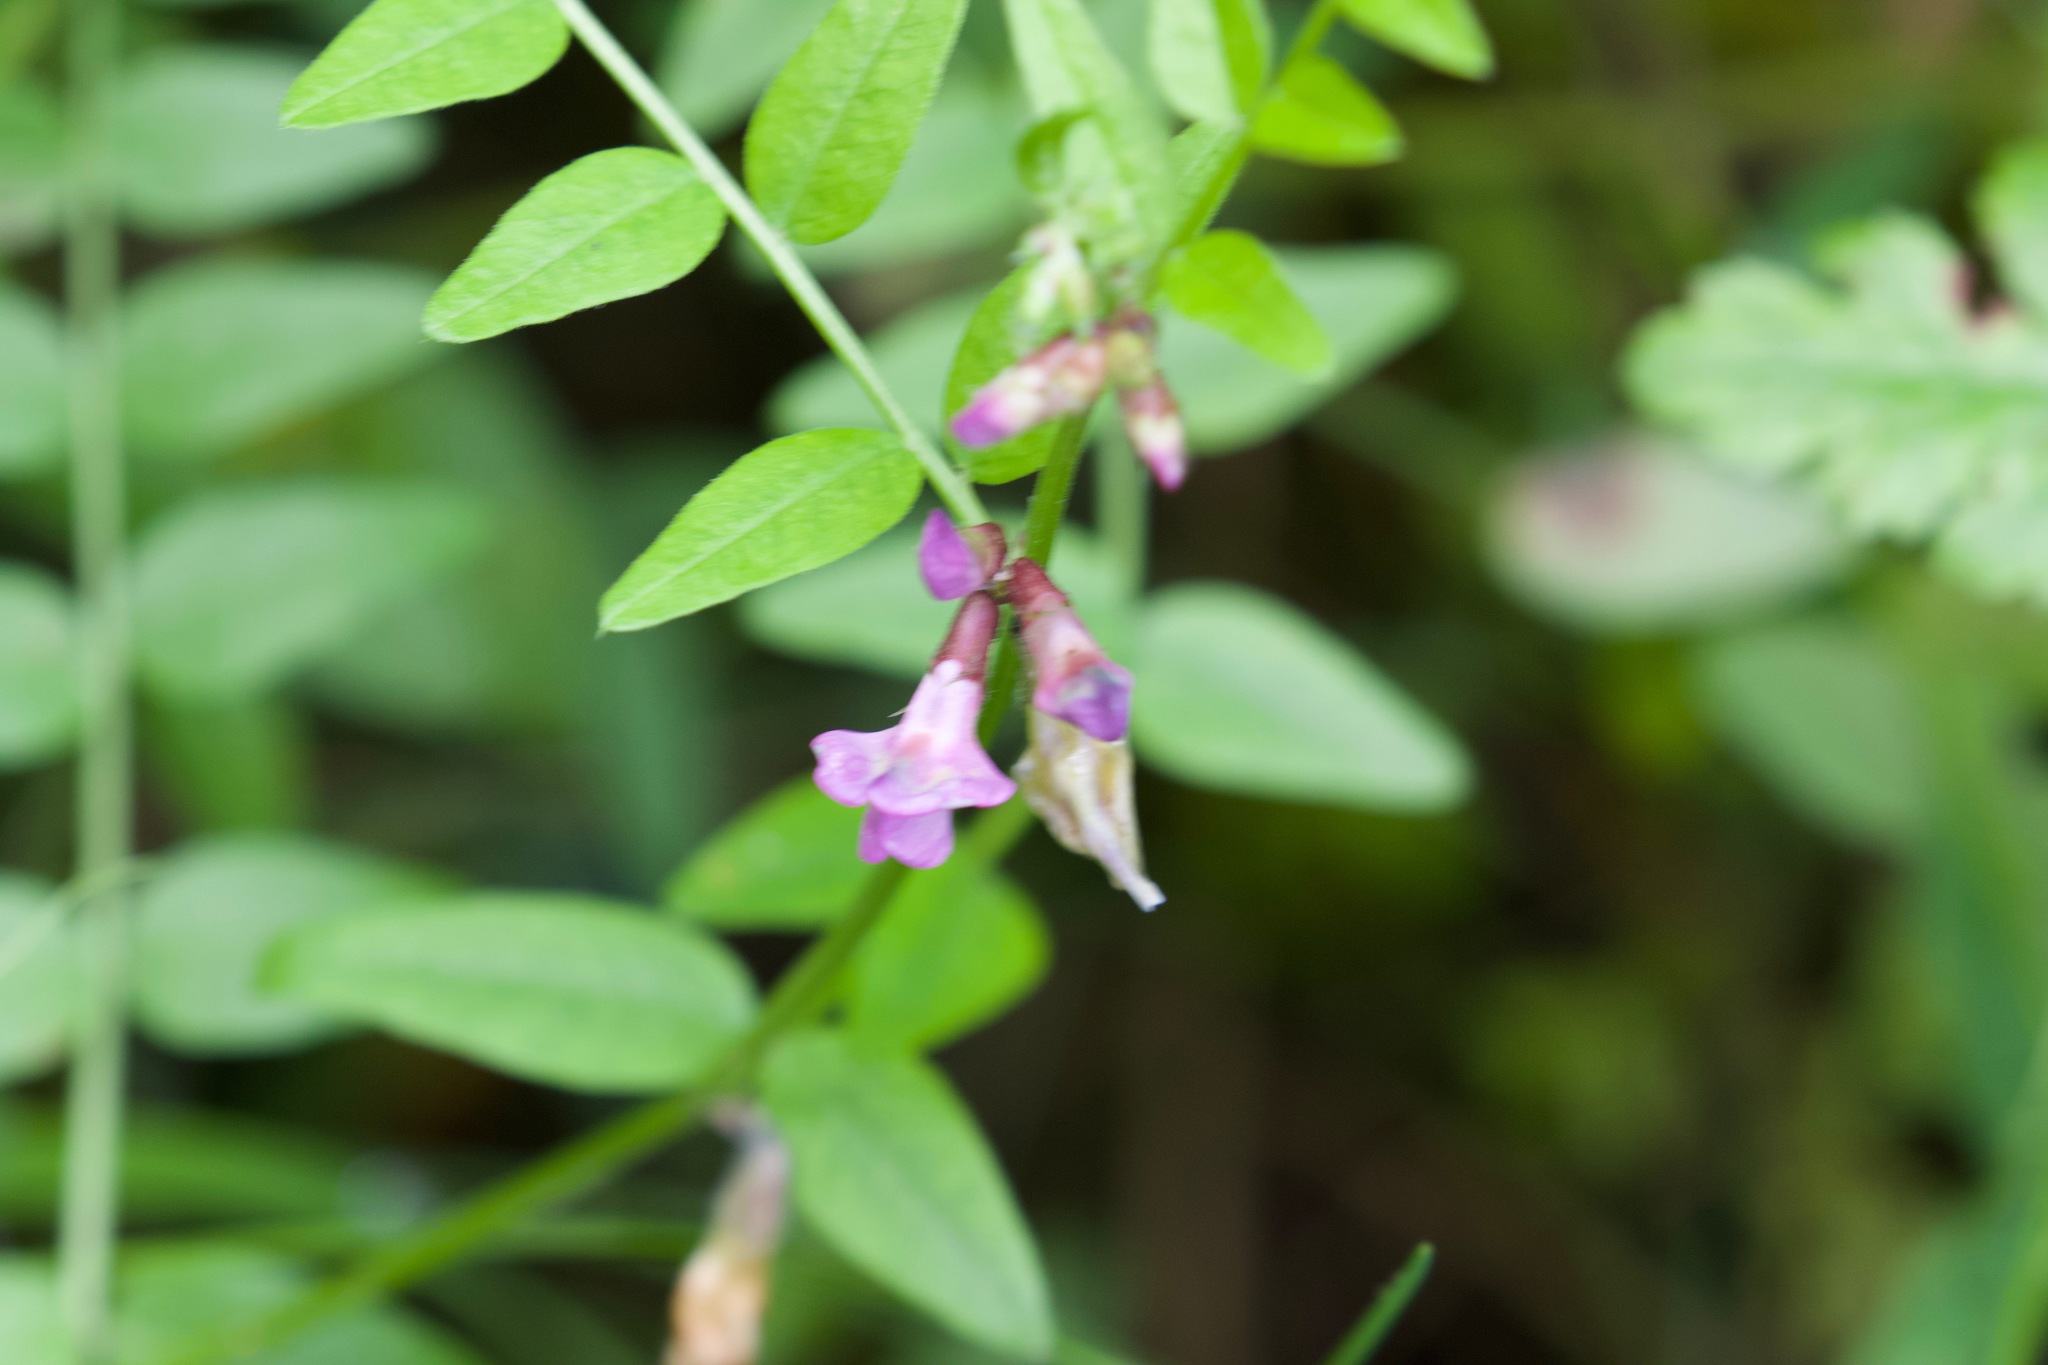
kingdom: Plantae
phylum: Tracheophyta
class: Magnoliopsida
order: Fabales
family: Fabaceae
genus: Vicia
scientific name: Vicia sepium
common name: Bush vetch
